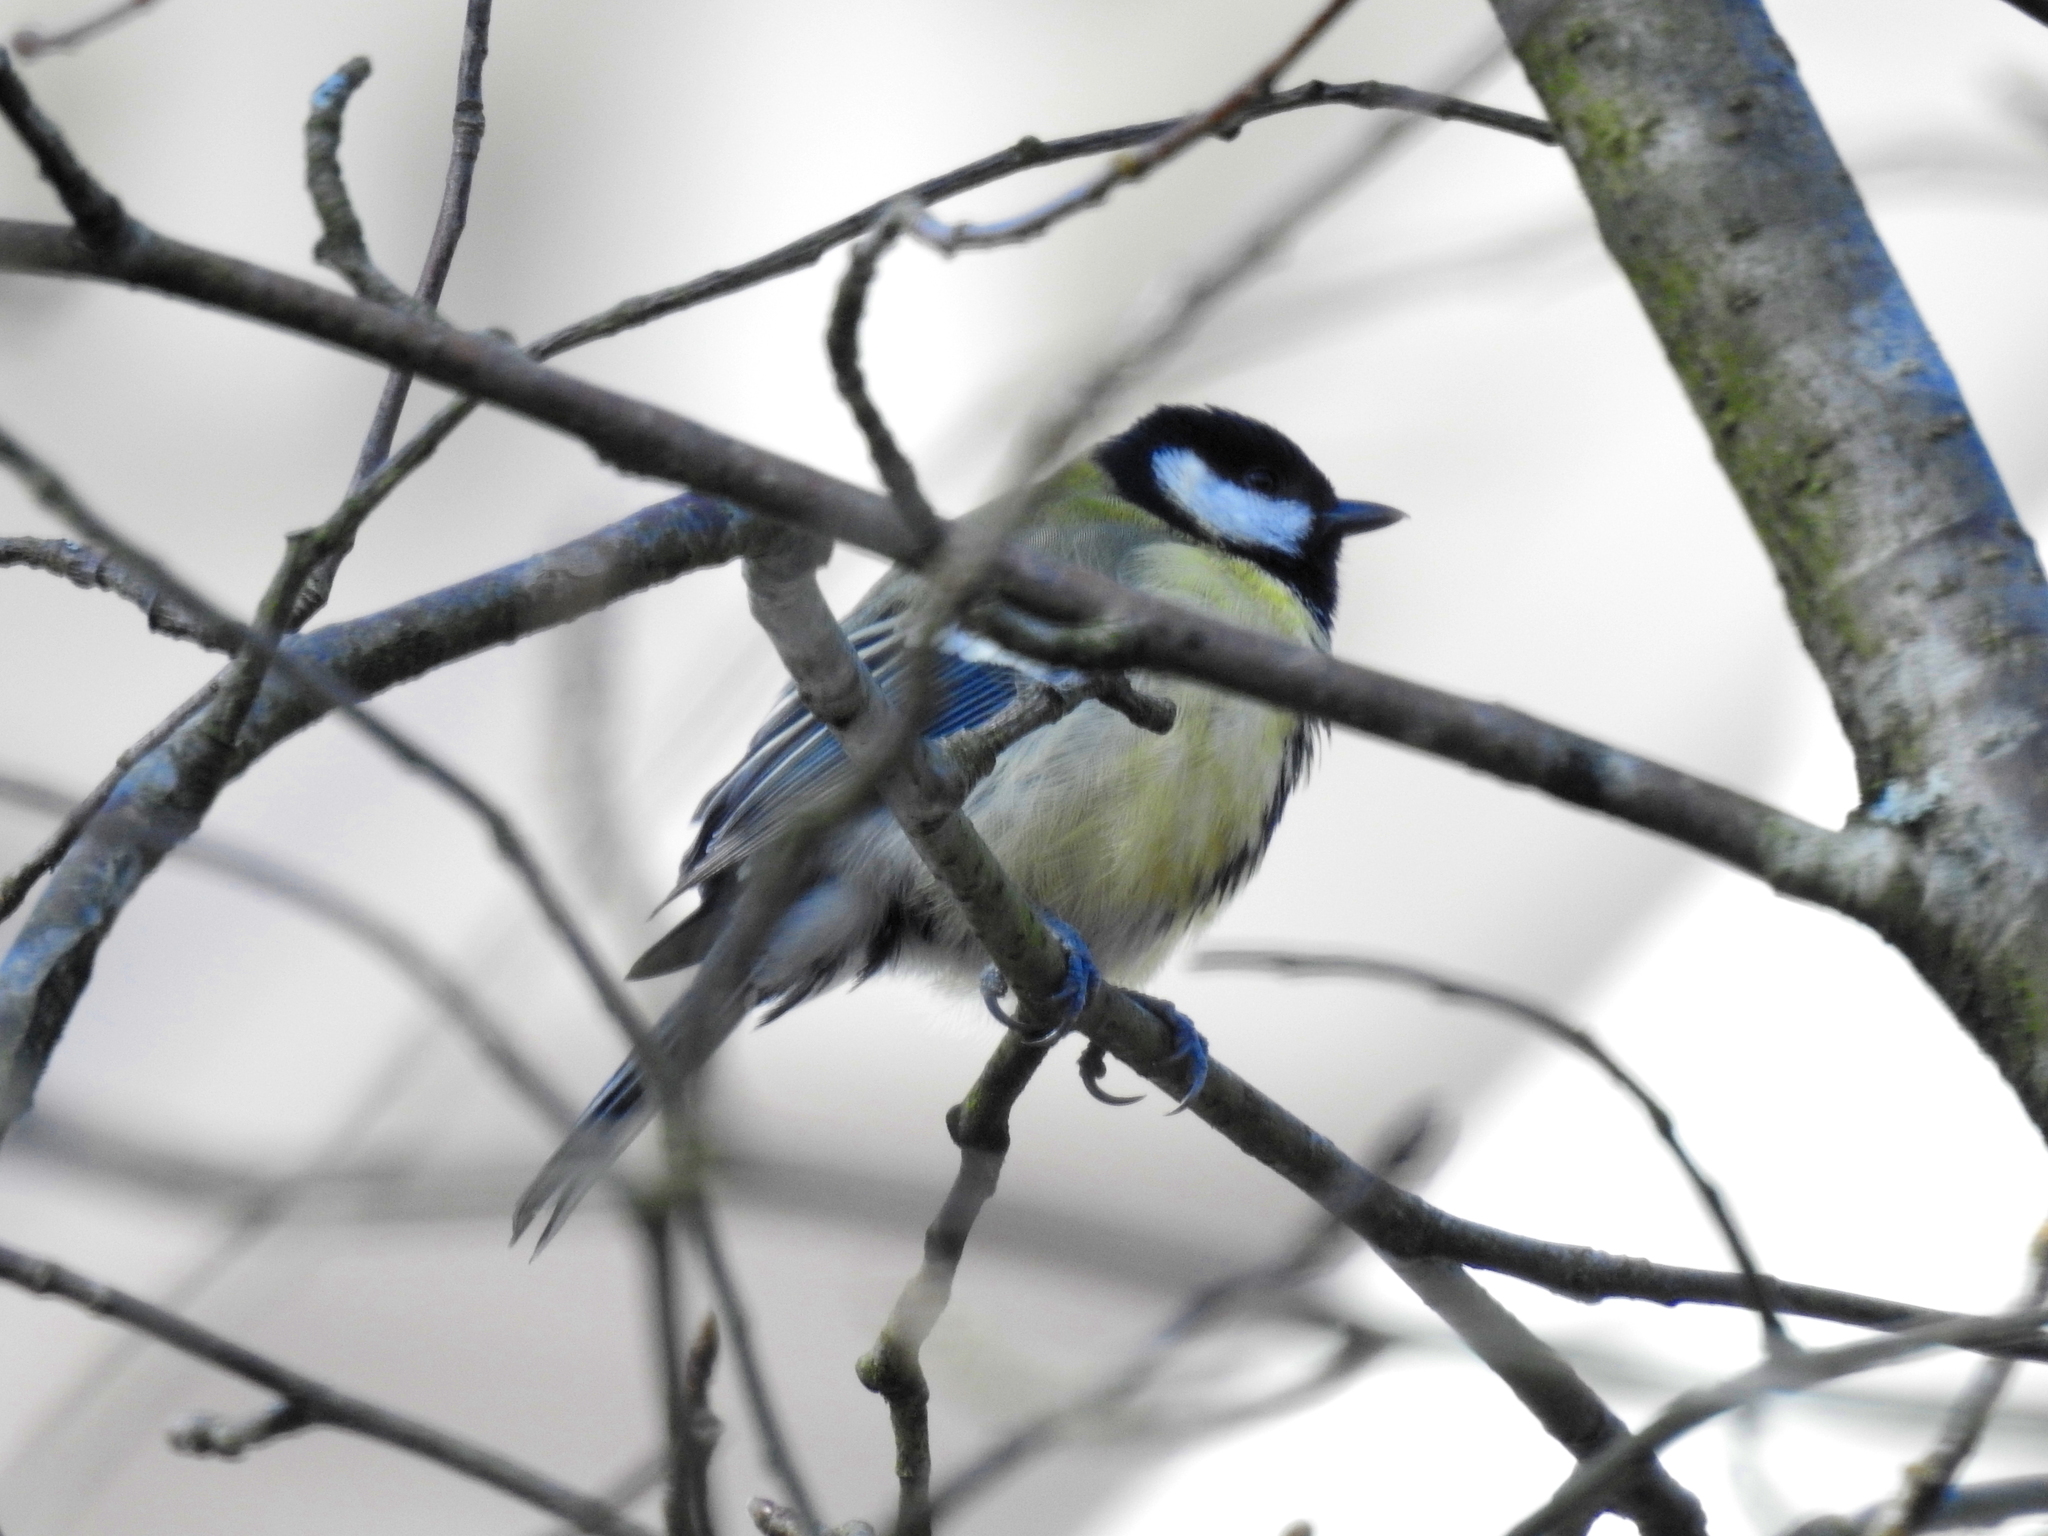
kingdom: Animalia
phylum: Chordata
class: Aves
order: Passeriformes
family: Paridae
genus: Parus
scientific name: Parus major
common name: Great tit
